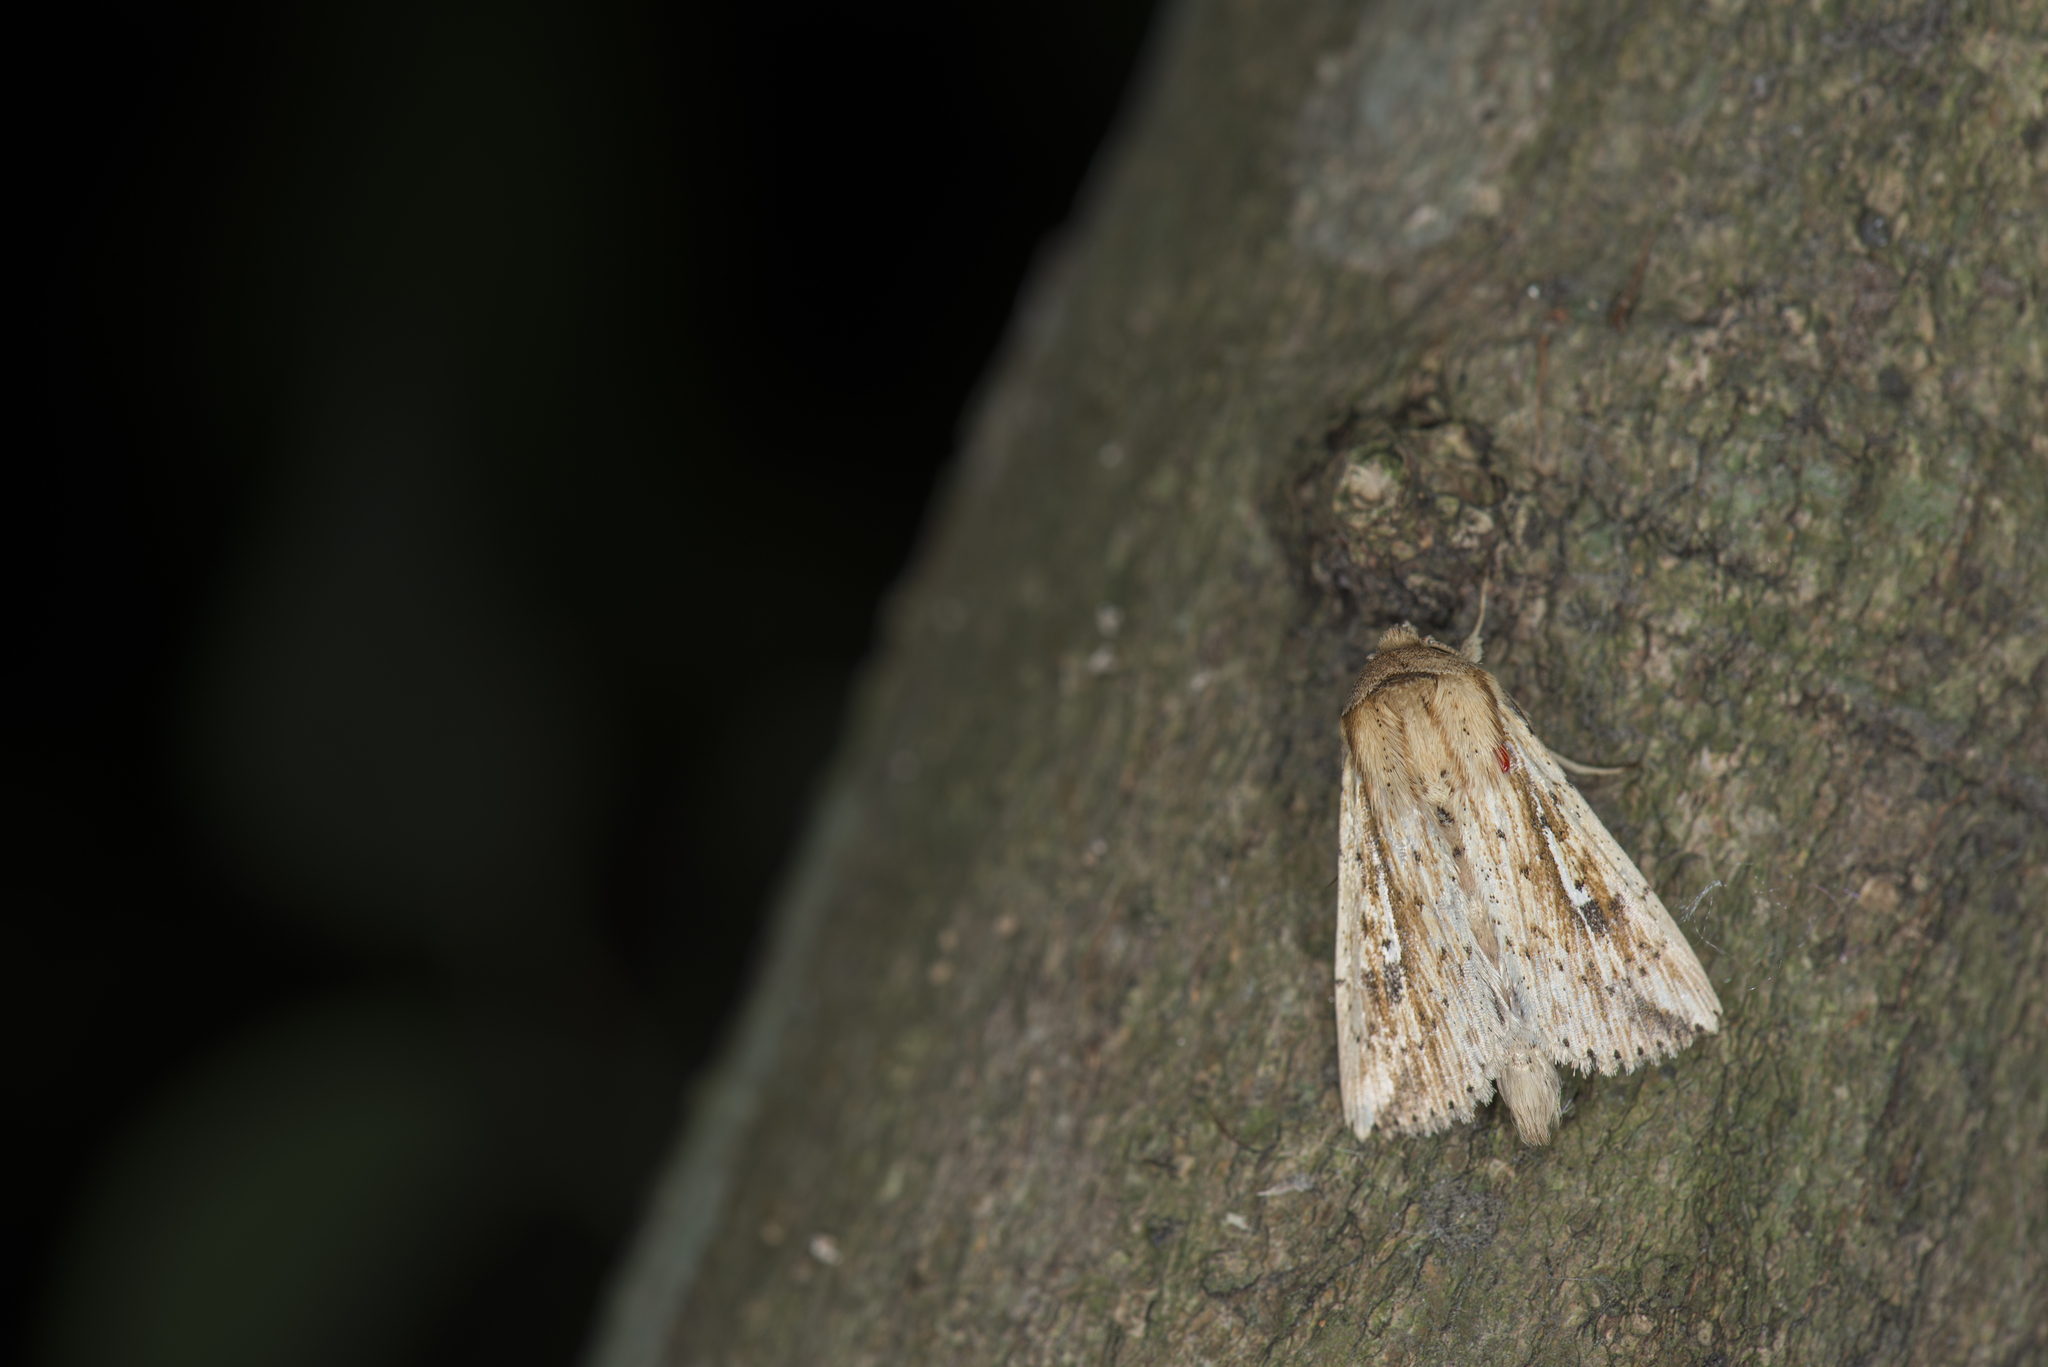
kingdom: Animalia
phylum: Arthropoda
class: Insecta
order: Lepidoptera
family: Noctuidae
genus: Mythimna
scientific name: Mythimna decisissima
